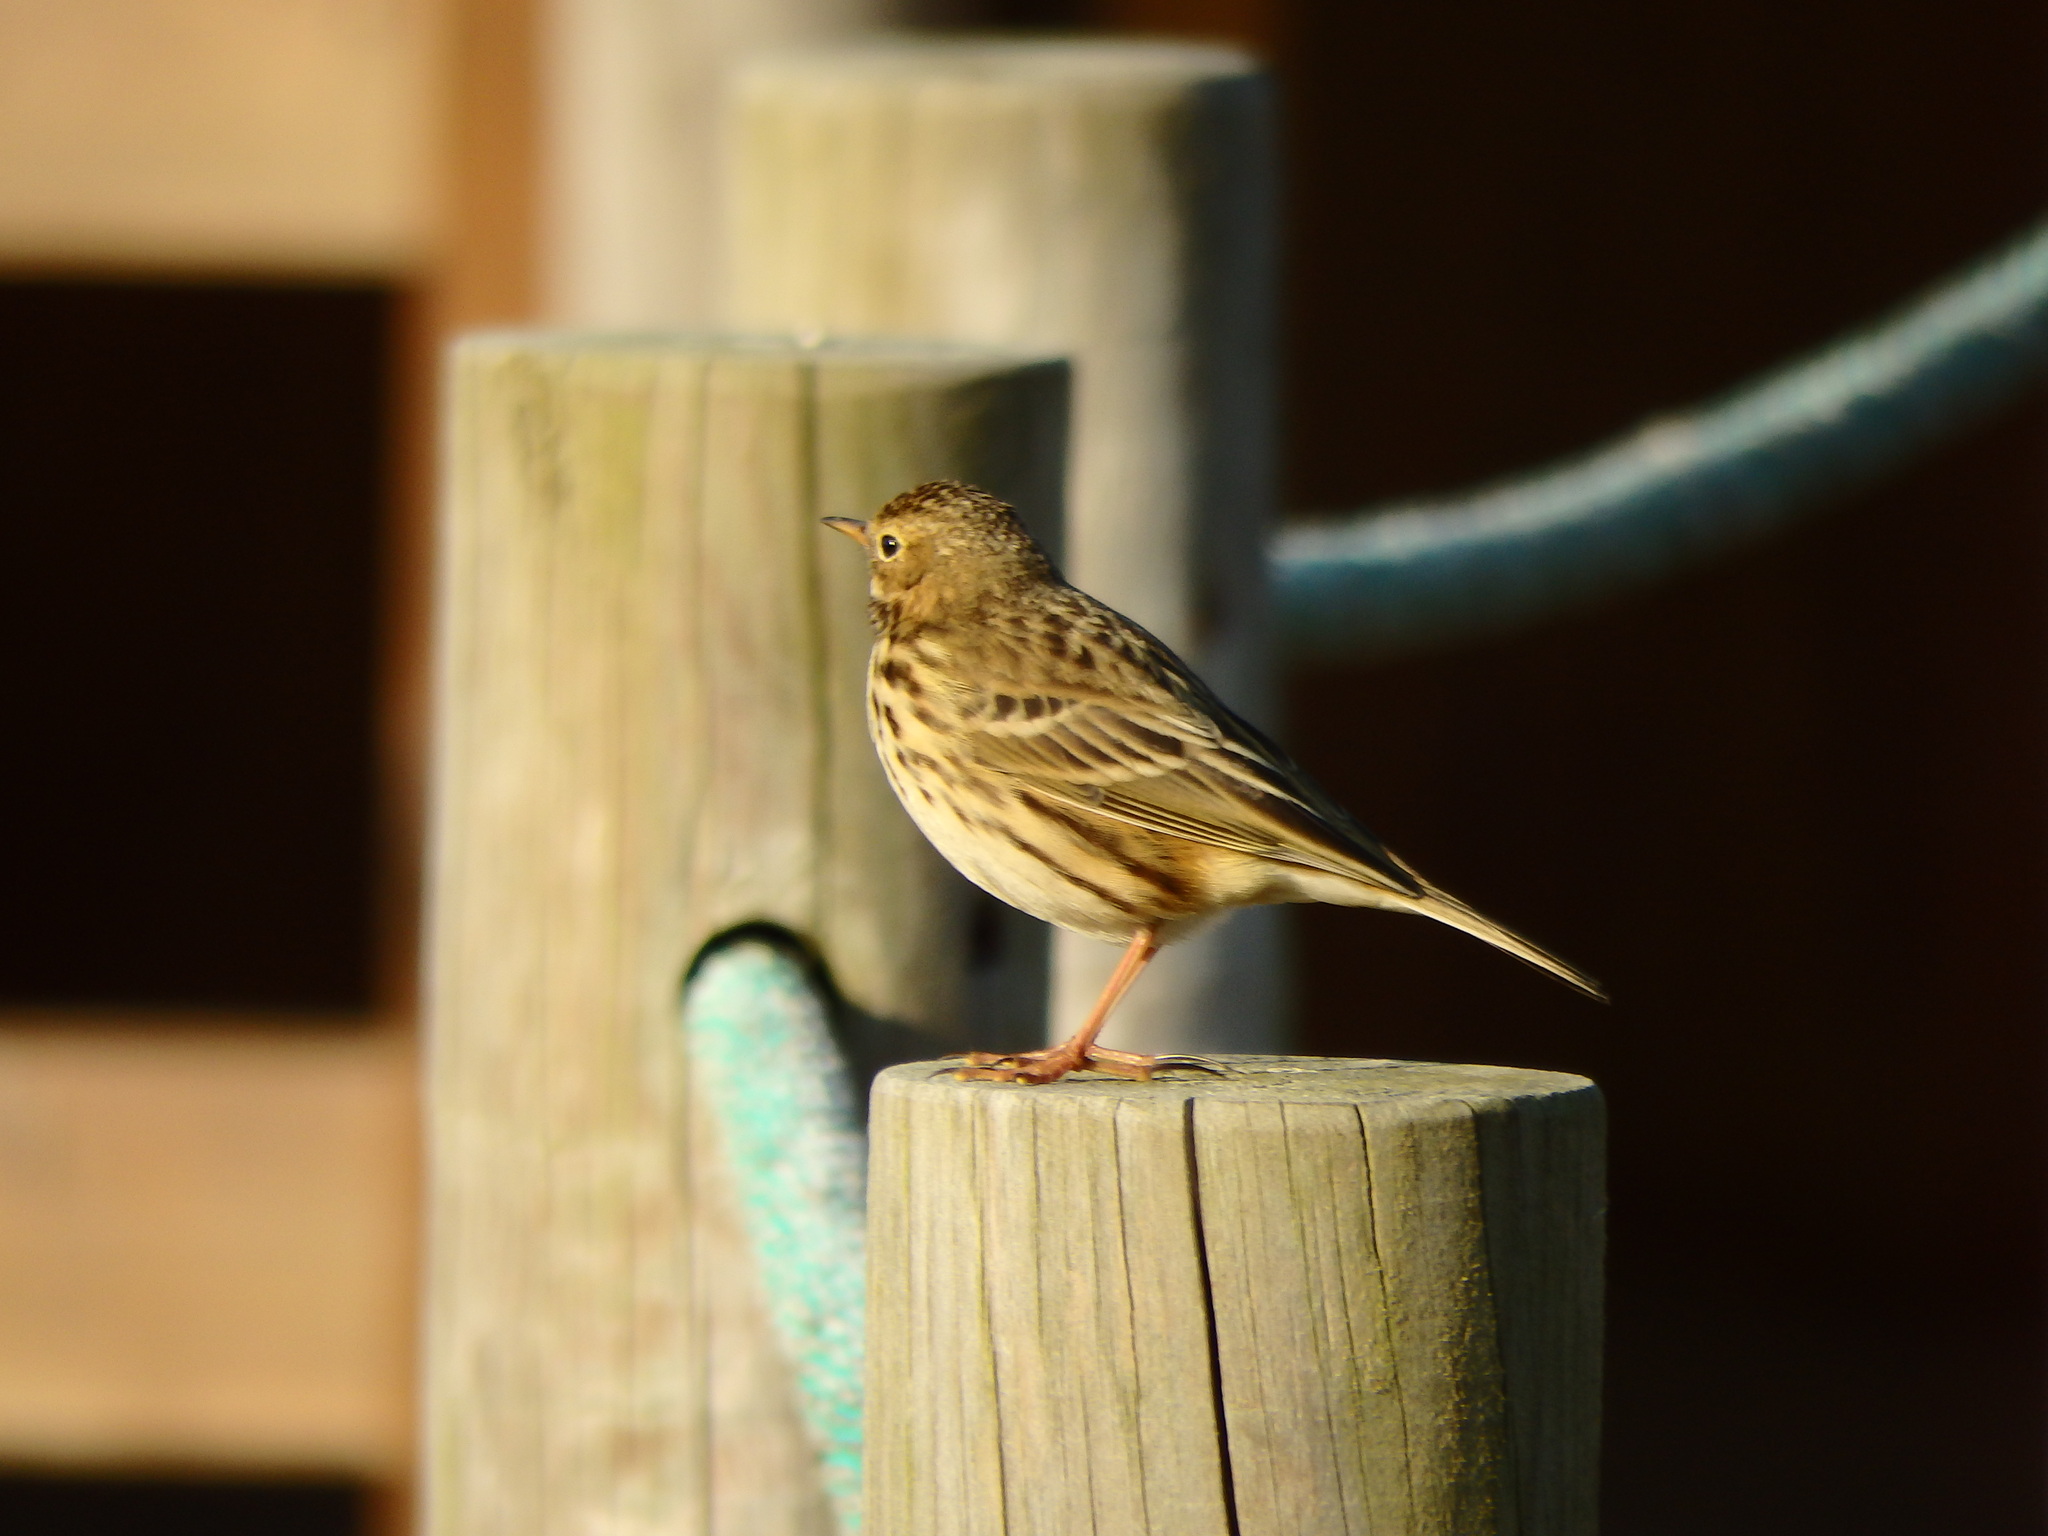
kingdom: Animalia
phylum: Chordata
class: Aves
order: Passeriformes
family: Motacillidae
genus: Anthus
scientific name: Anthus pratensis
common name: Meadow pipit
